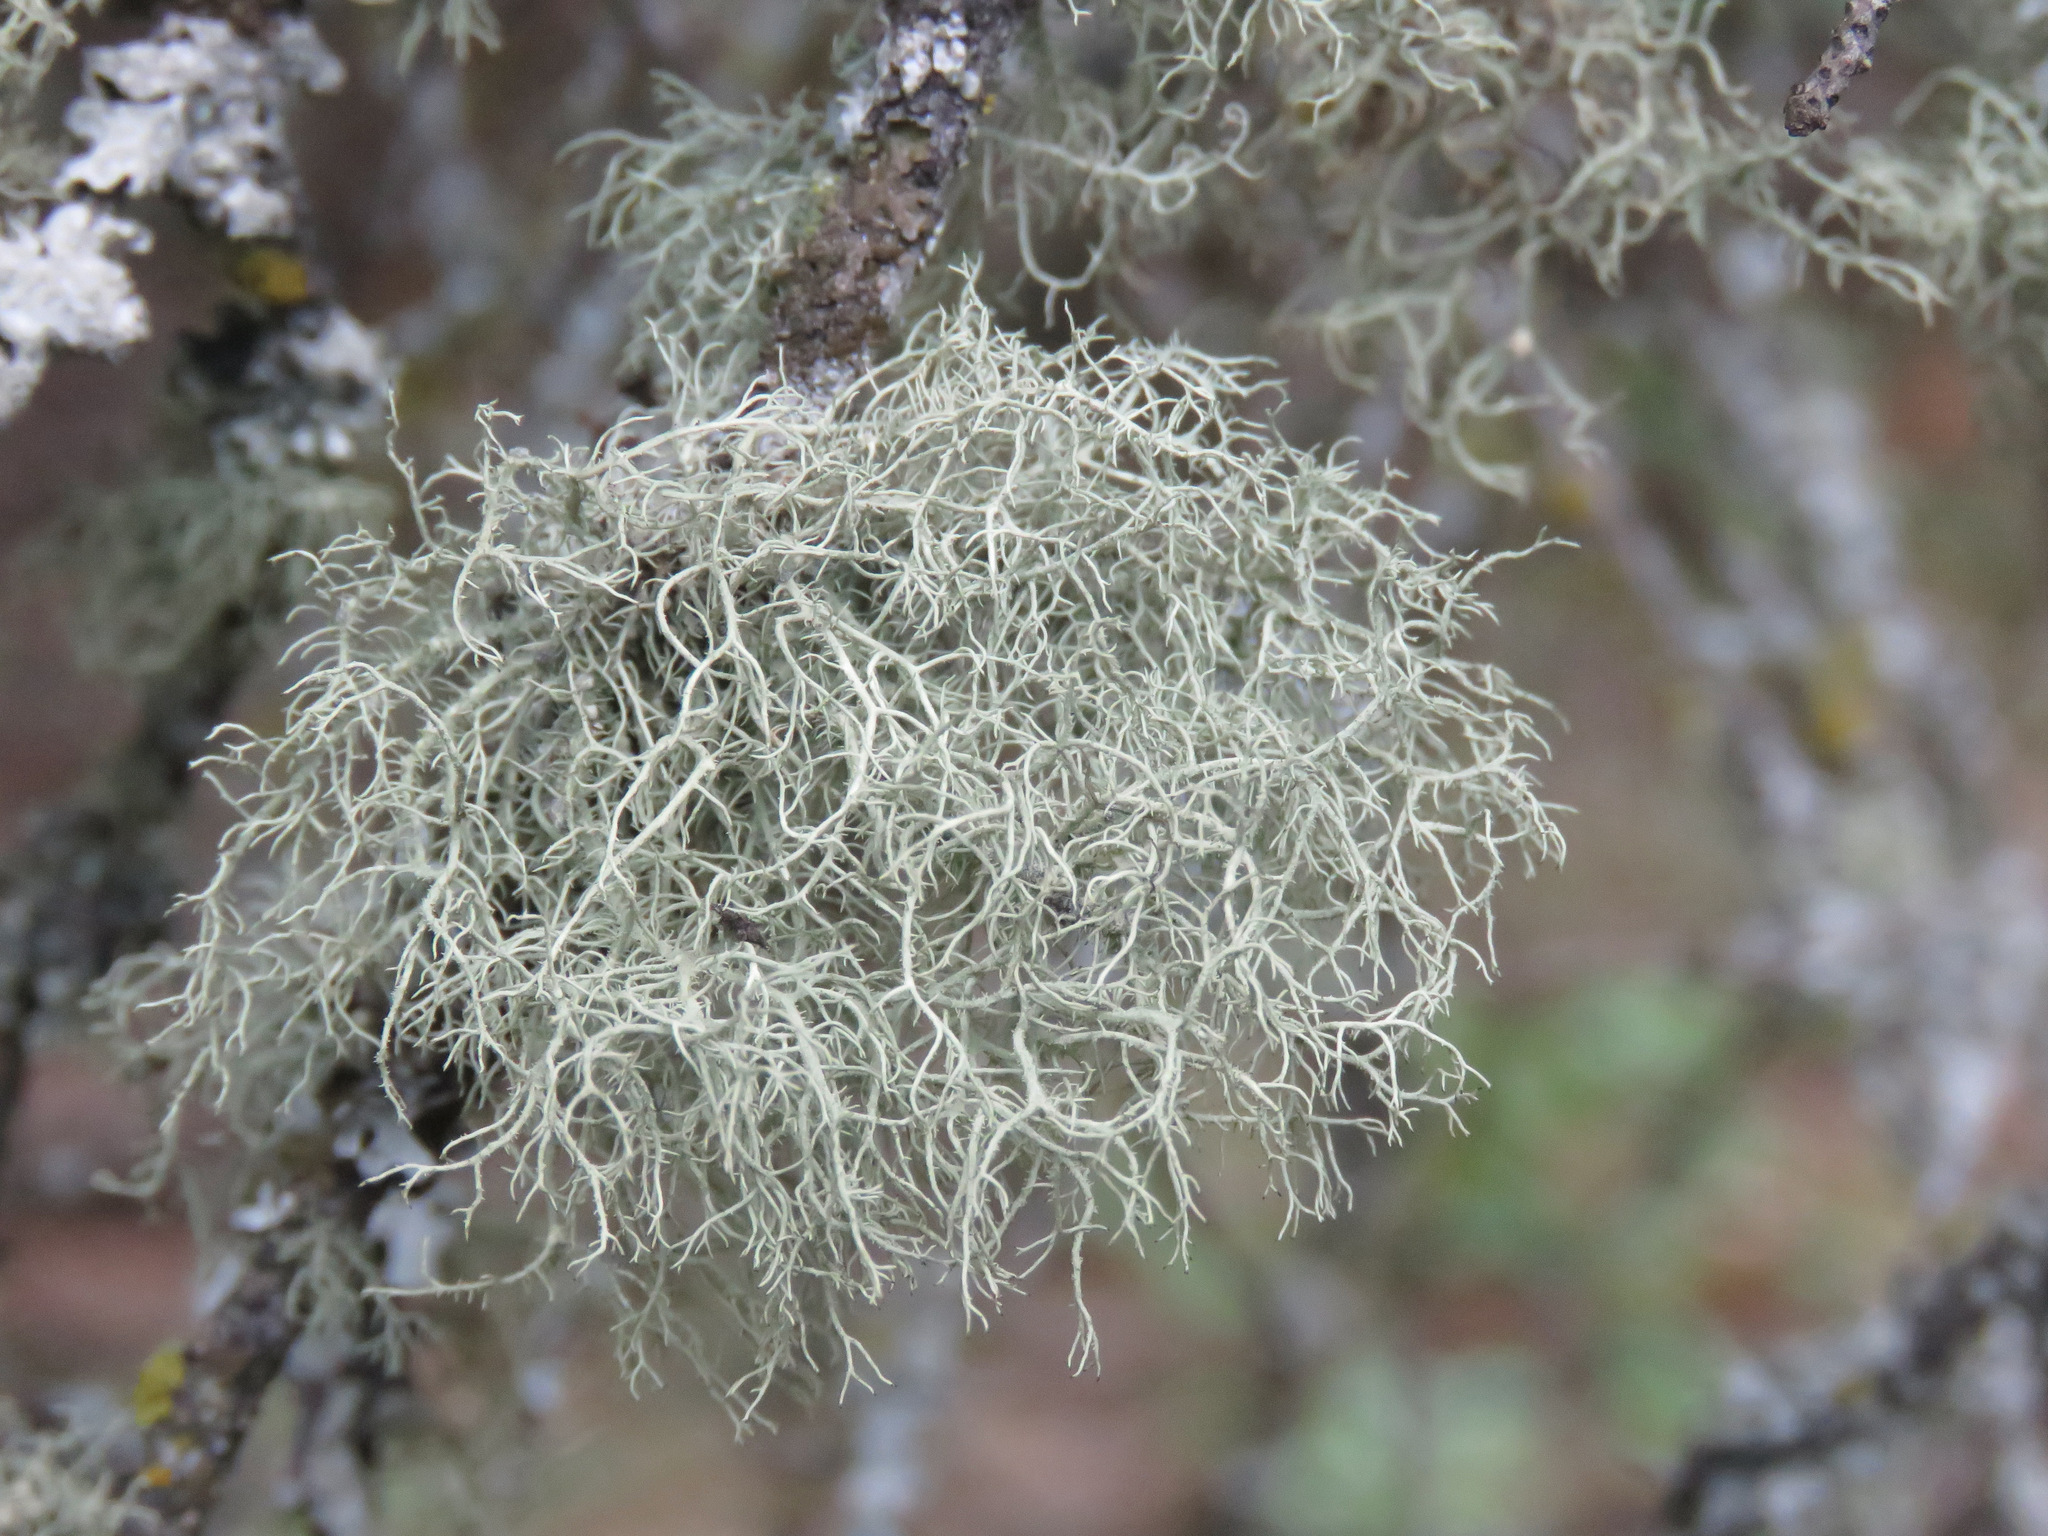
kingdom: Fungi
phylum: Ascomycota
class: Lecanoromycetes
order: Lecanorales
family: Parmeliaceae
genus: Usnea
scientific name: Usnea hirta
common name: Bristly beard lichen
